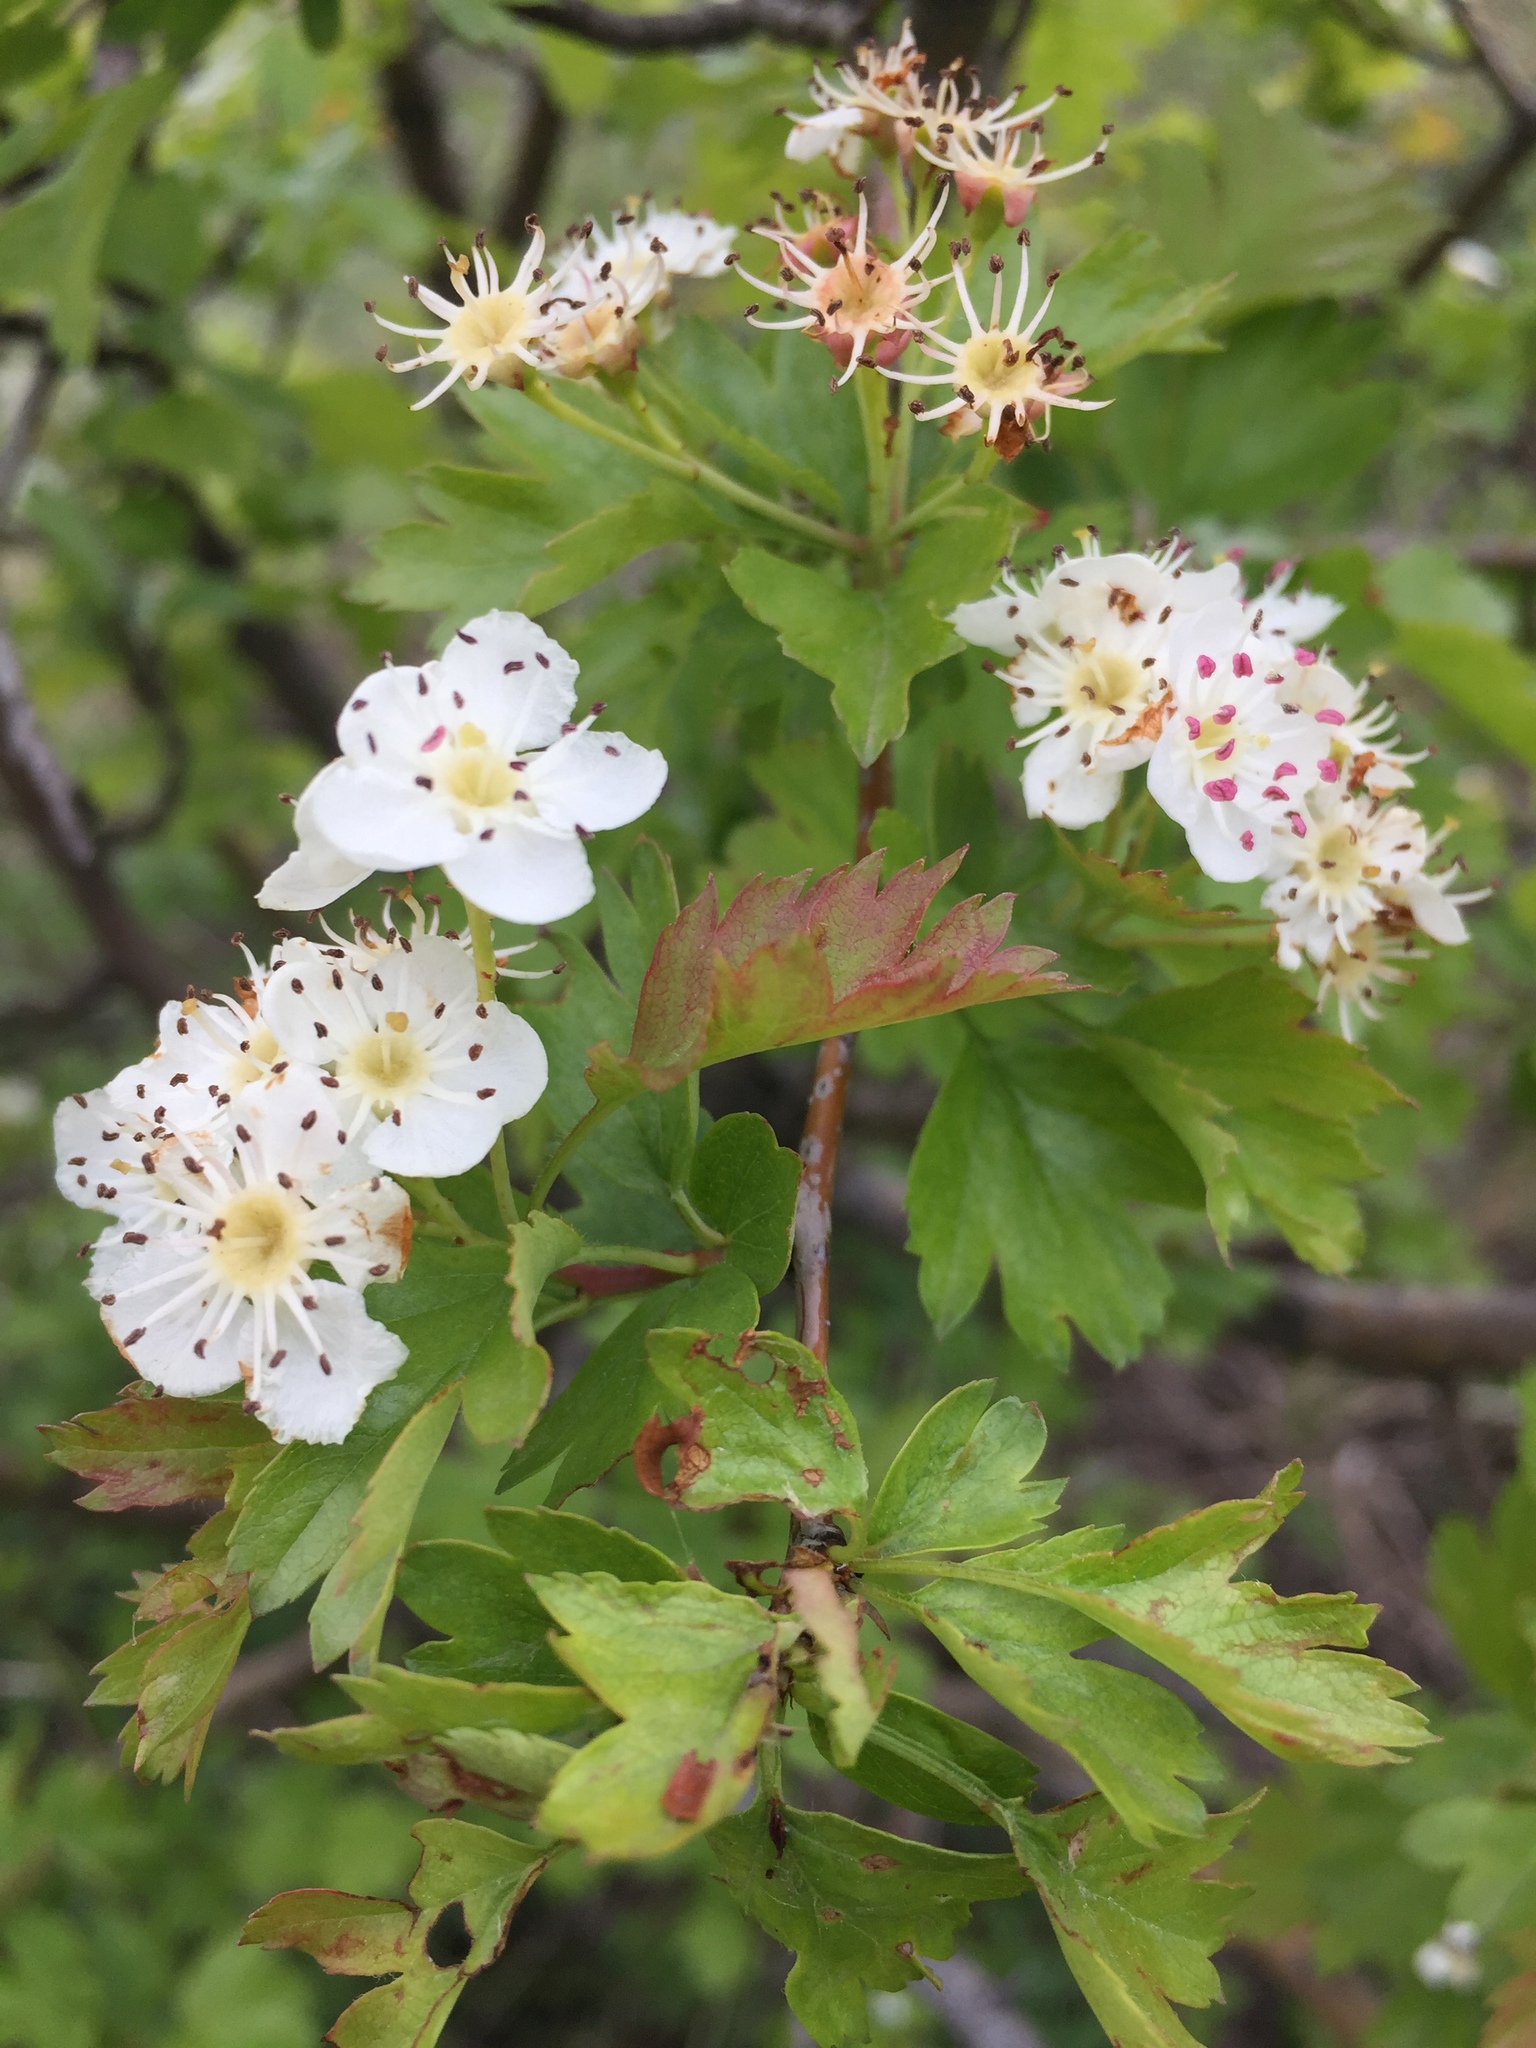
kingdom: Plantae
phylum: Tracheophyta
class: Magnoliopsida
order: Rosales
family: Rosaceae
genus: Crataegus
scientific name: Crataegus monogyna
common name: Hawthorn
